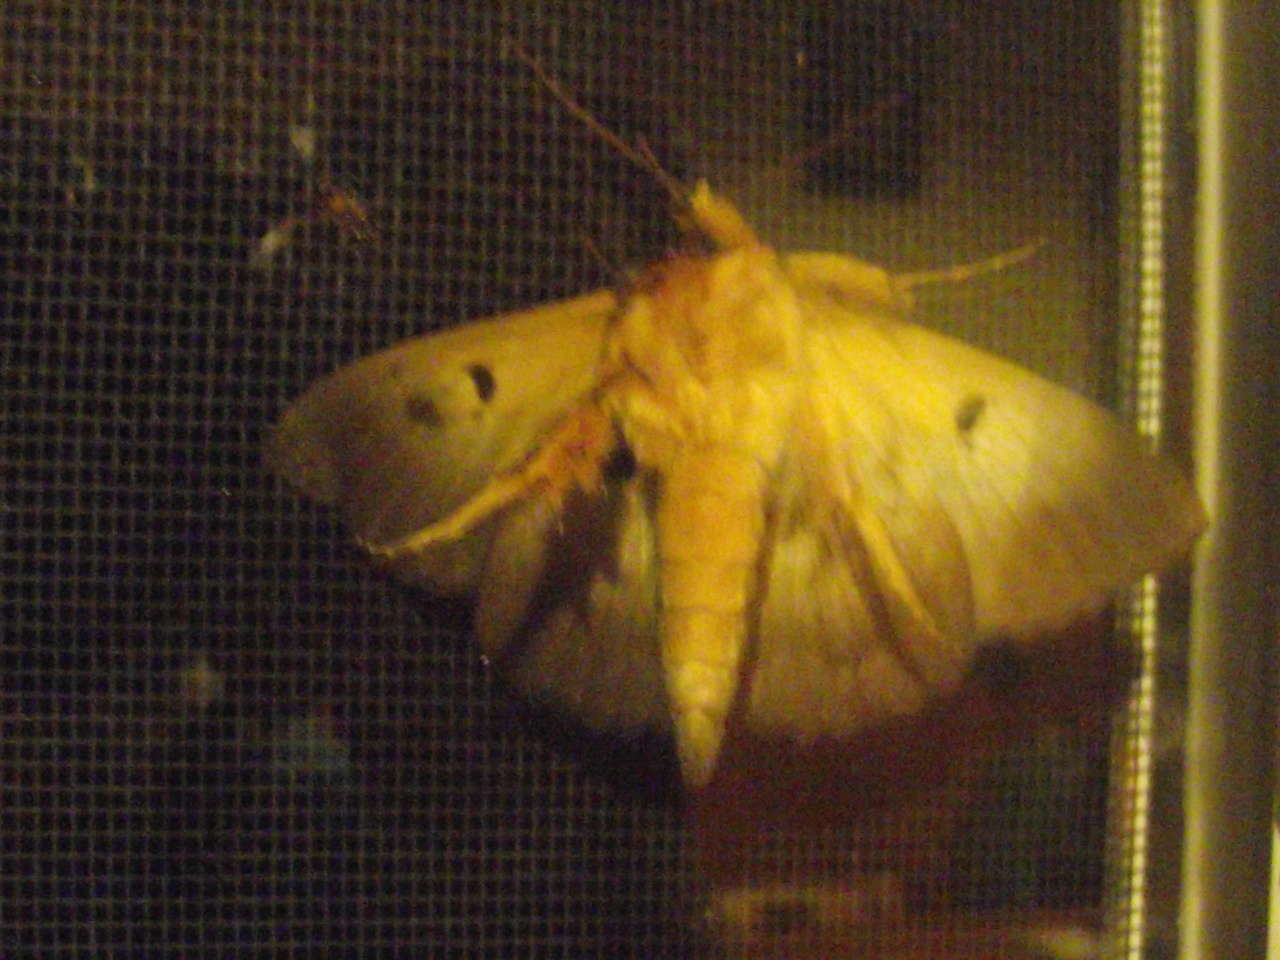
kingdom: Animalia
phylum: Arthropoda
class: Insecta
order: Lepidoptera
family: Erebidae
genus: Dasypodia
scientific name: Dasypodia selenophora
